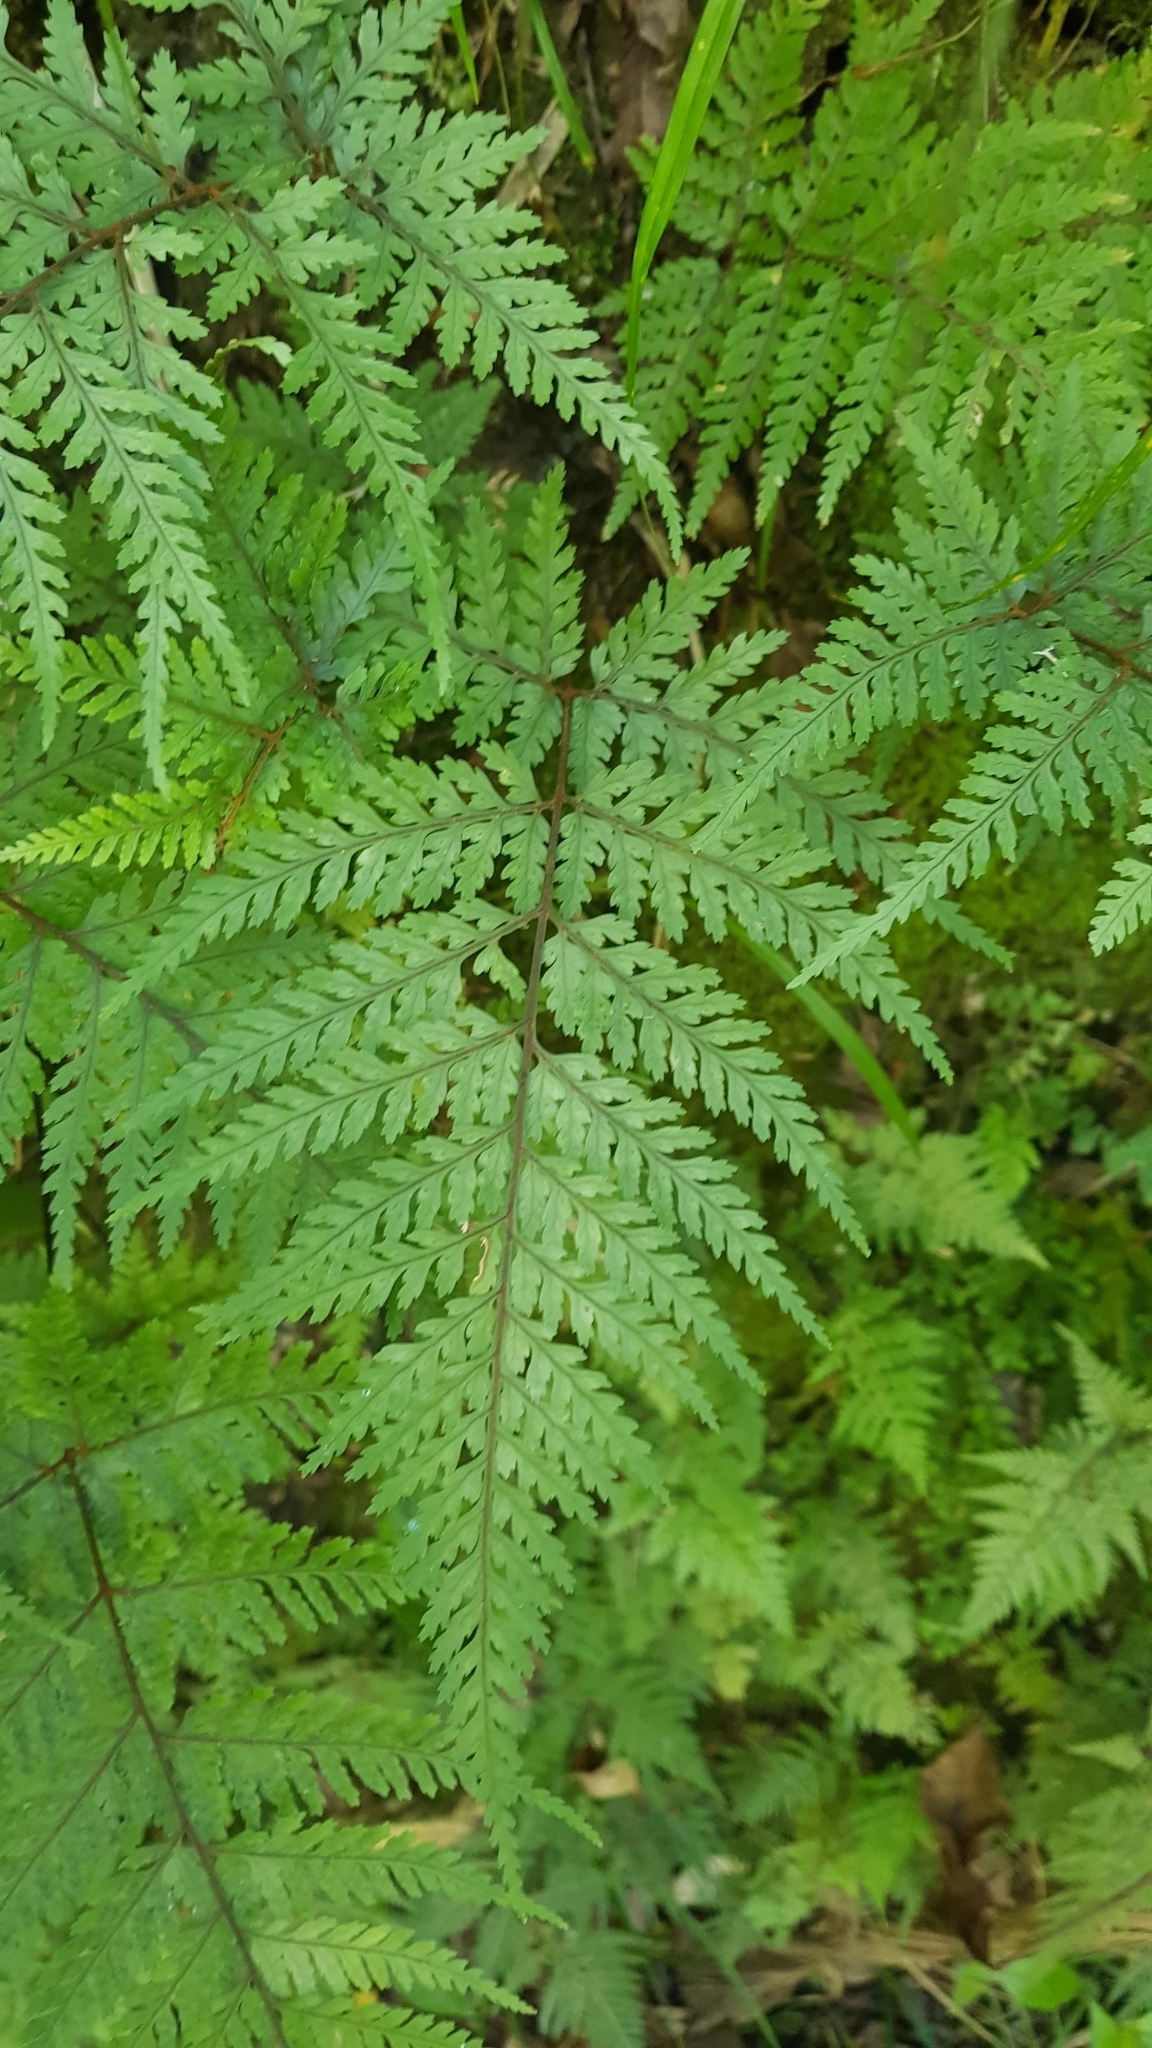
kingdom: Plantae
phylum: Tracheophyta
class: Polypodiopsida
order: Polypodiales
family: Dryopteridaceae
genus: Parapolystichum
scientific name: Parapolystichum glabellum
